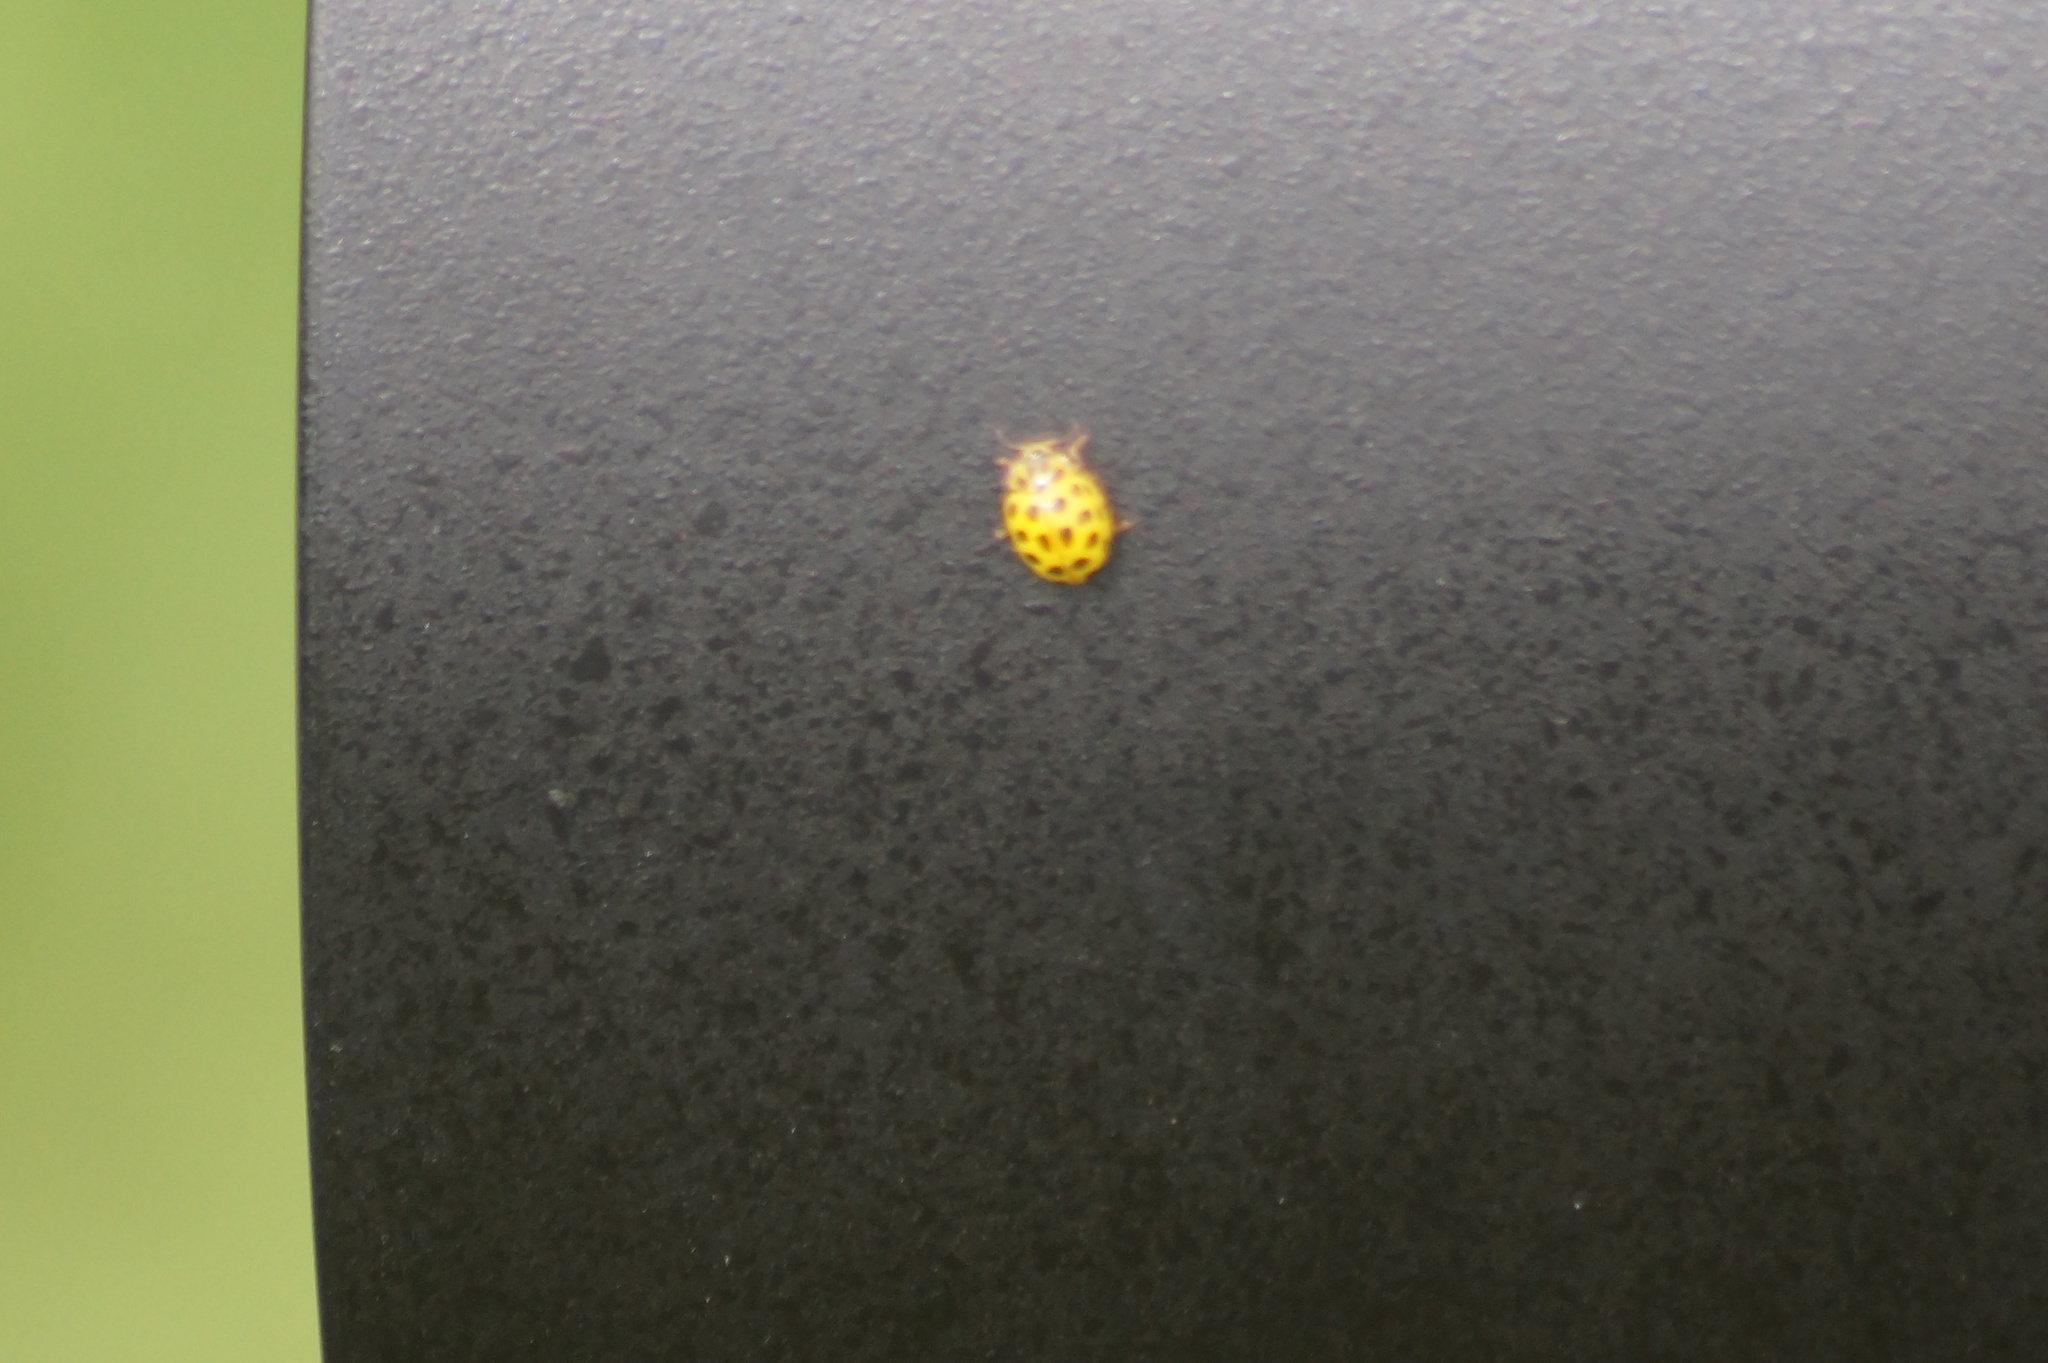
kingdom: Animalia
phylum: Arthropoda
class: Insecta
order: Coleoptera
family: Coccinellidae
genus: Psyllobora
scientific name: Psyllobora vigintiduopunctata
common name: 22-spot ladybird
